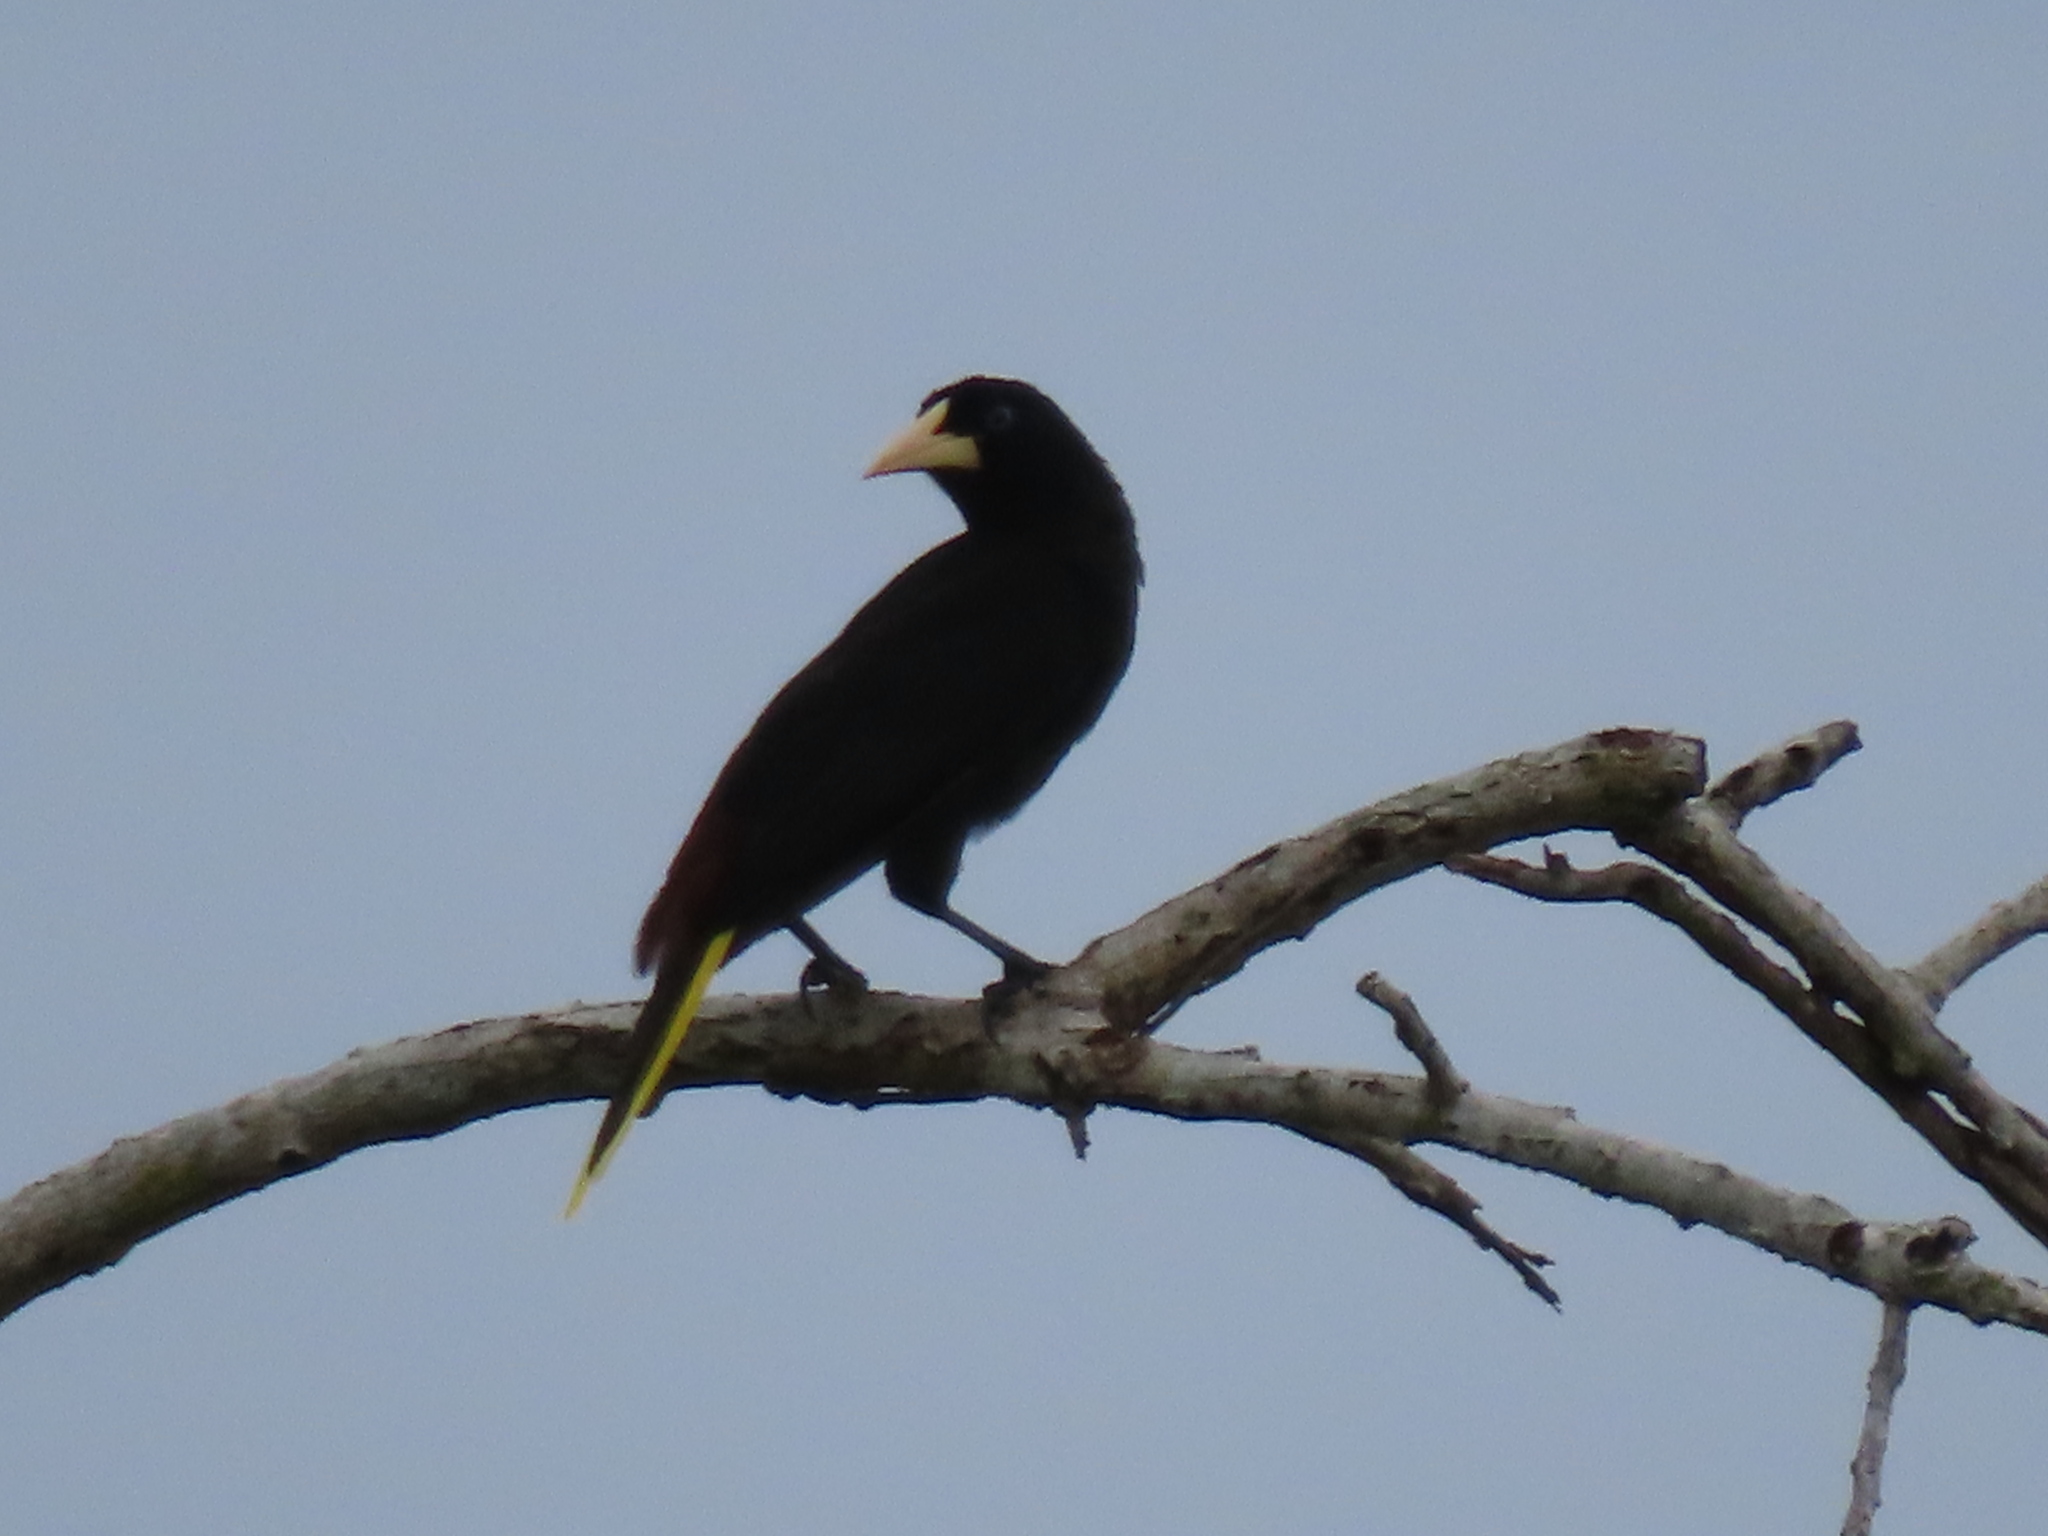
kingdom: Animalia
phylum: Chordata
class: Aves
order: Passeriformes
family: Icteridae
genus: Psarocolius
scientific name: Psarocolius decumanus
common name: Crested oropendola
